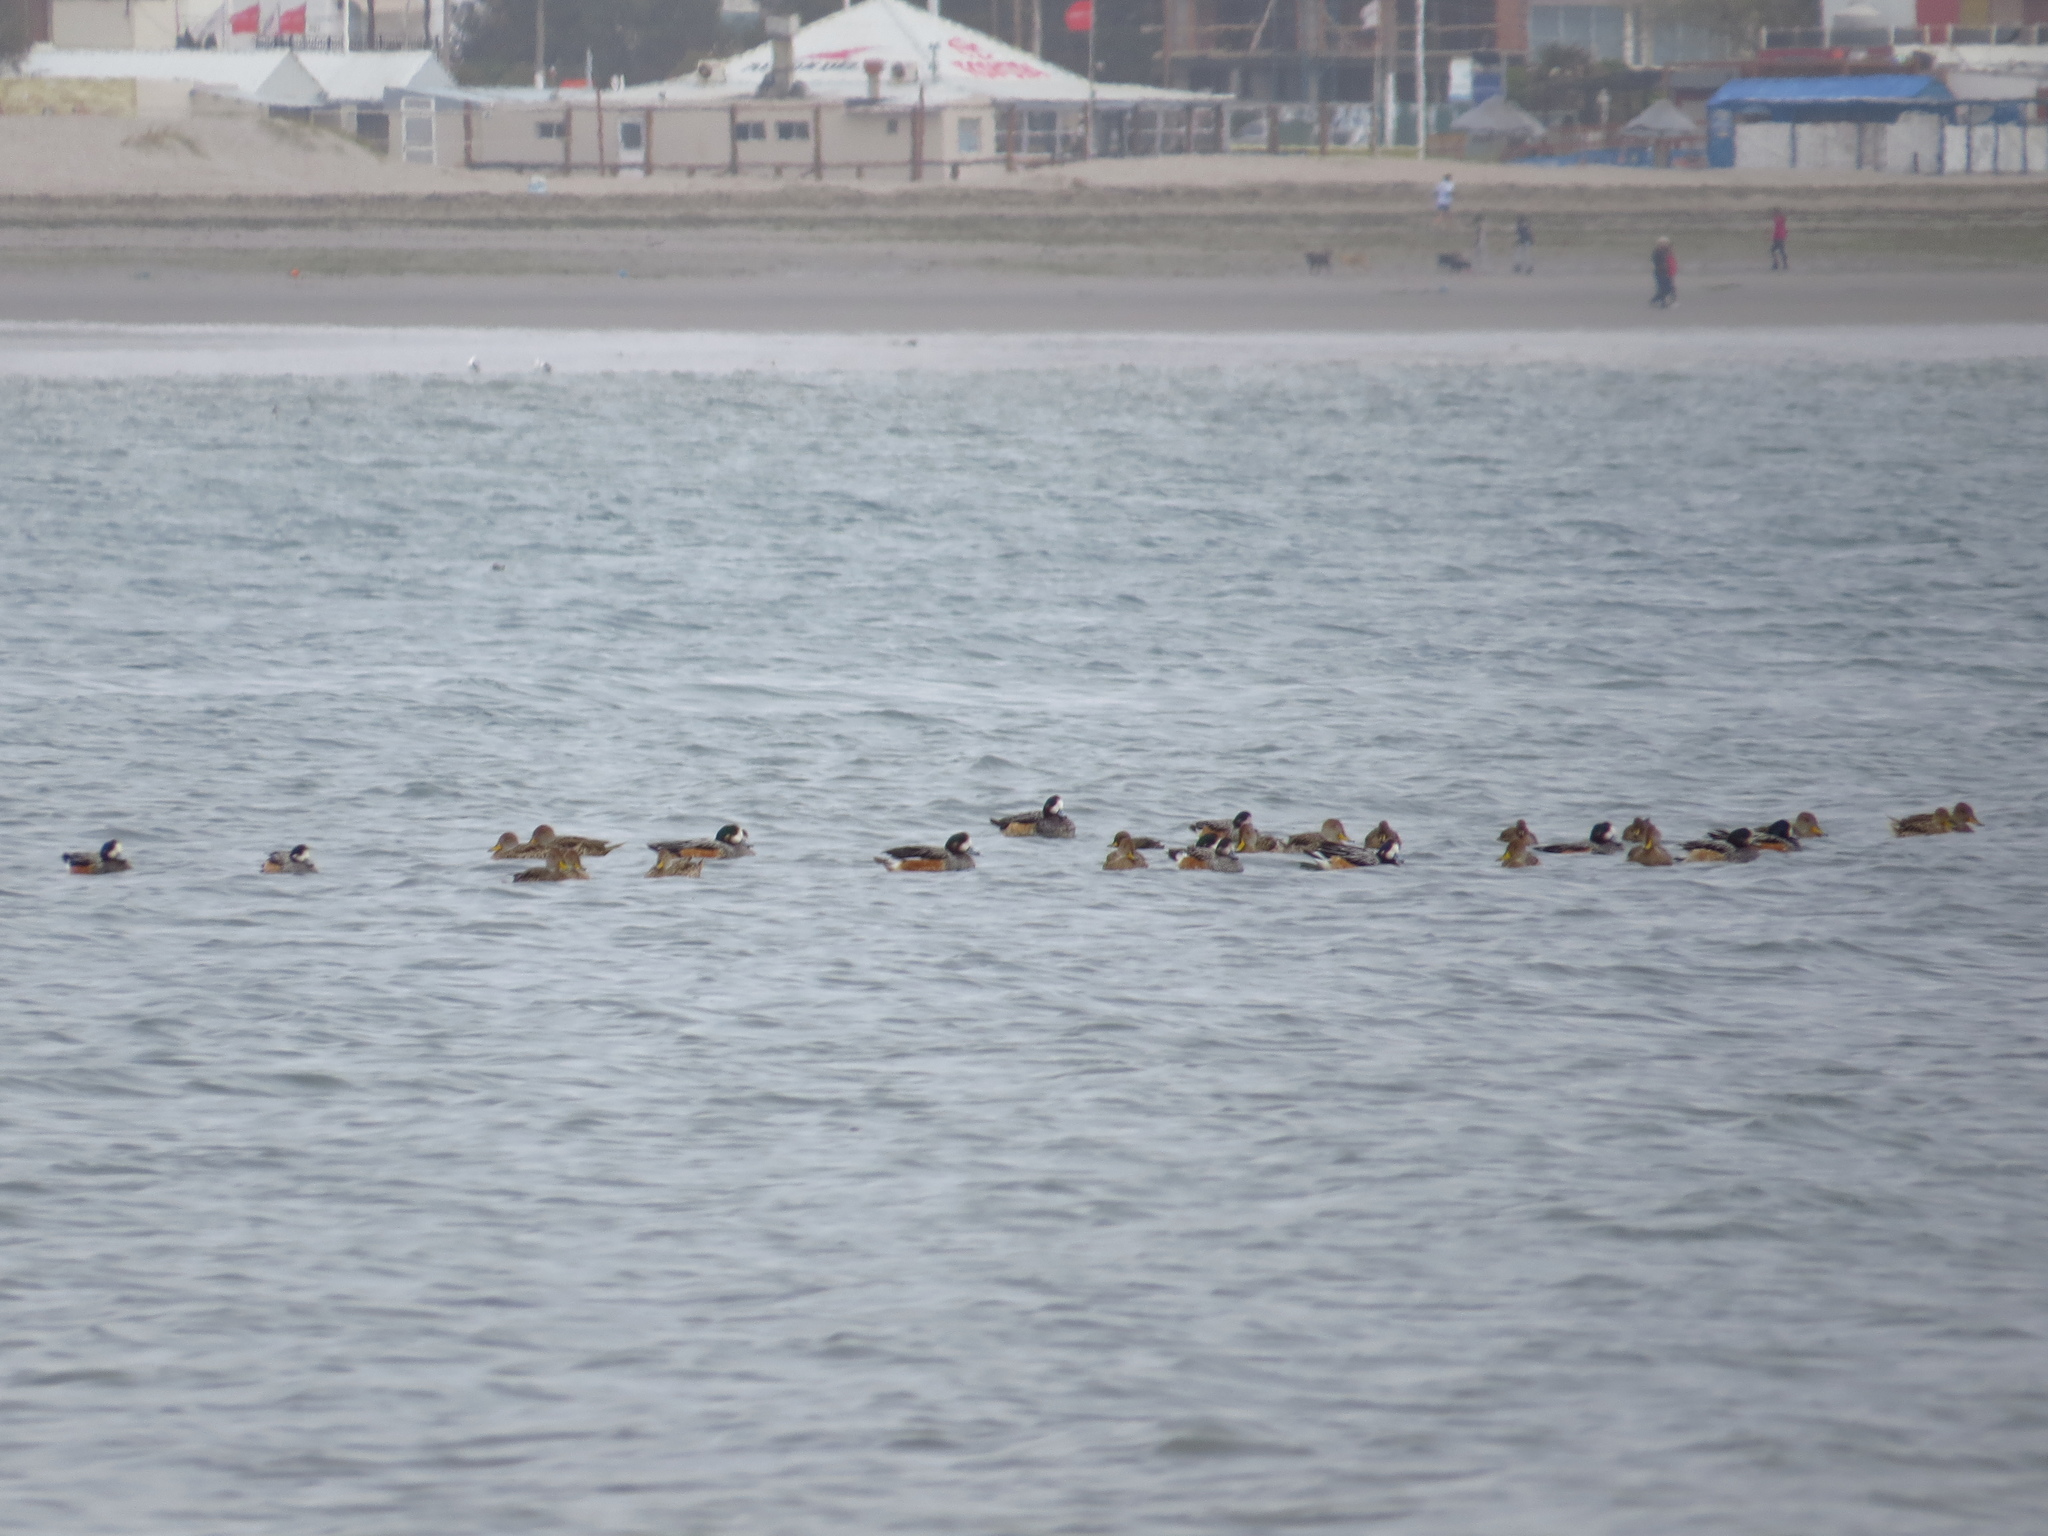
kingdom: Animalia
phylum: Chordata
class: Aves
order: Anseriformes
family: Anatidae
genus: Mareca
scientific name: Mareca sibilatrix
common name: Chiloe wigeon
